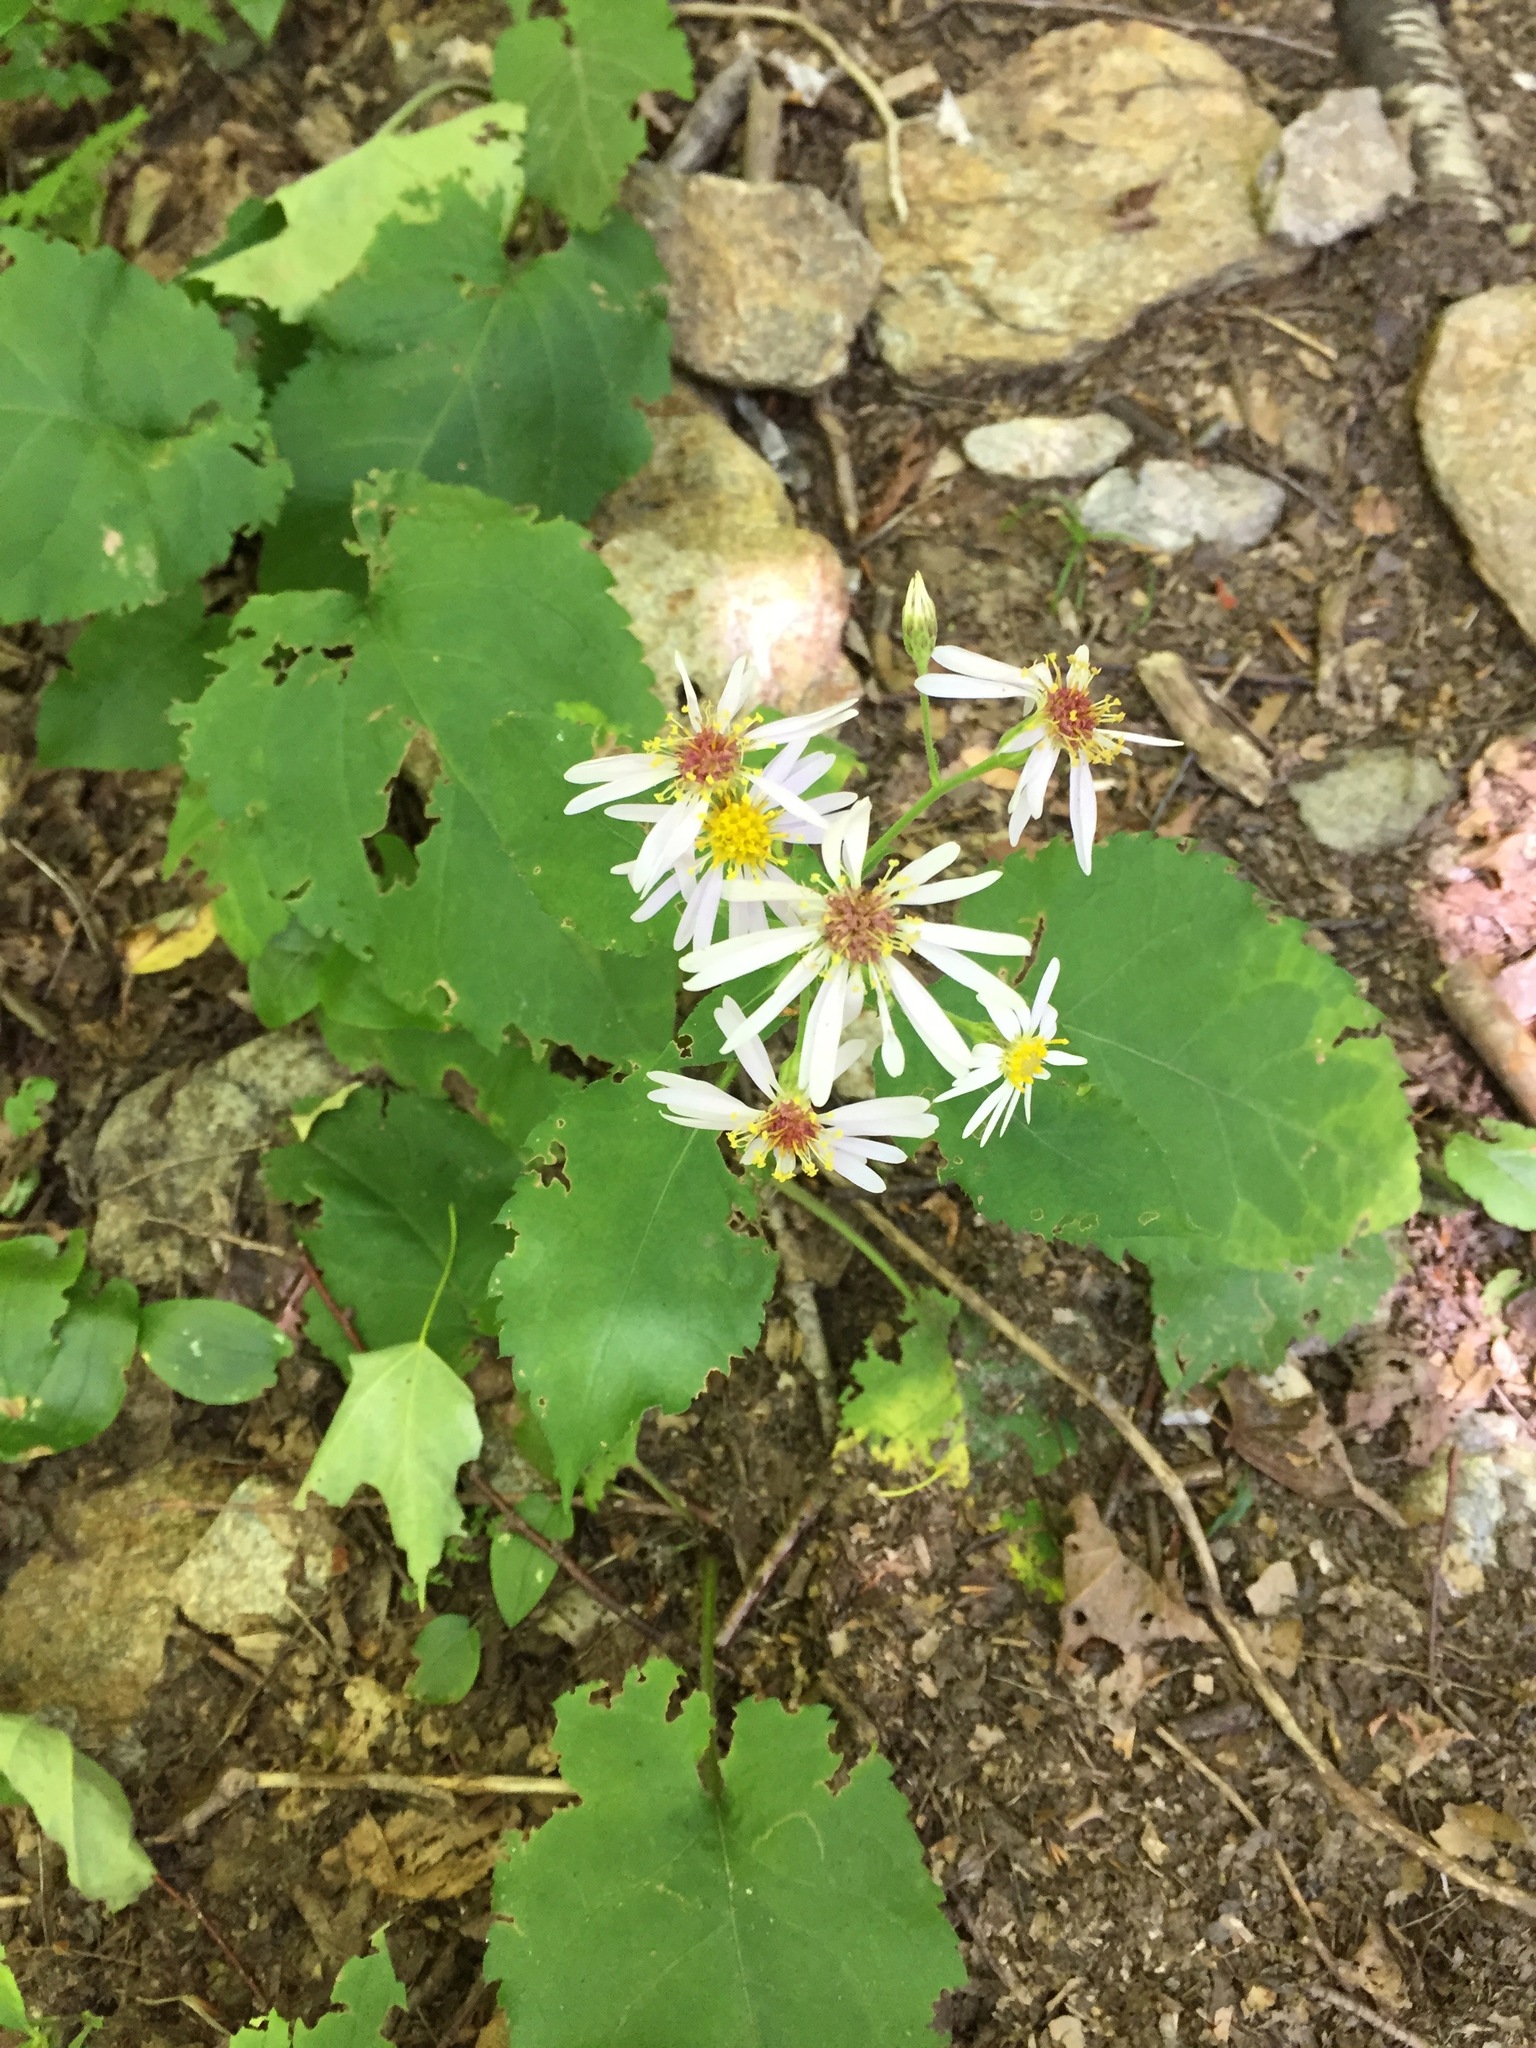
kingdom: Plantae
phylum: Tracheophyta
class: Magnoliopsida
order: Asterales
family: Asteraceae
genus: Eurybia
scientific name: Eurybia macrophylla
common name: Big-leaved aster
